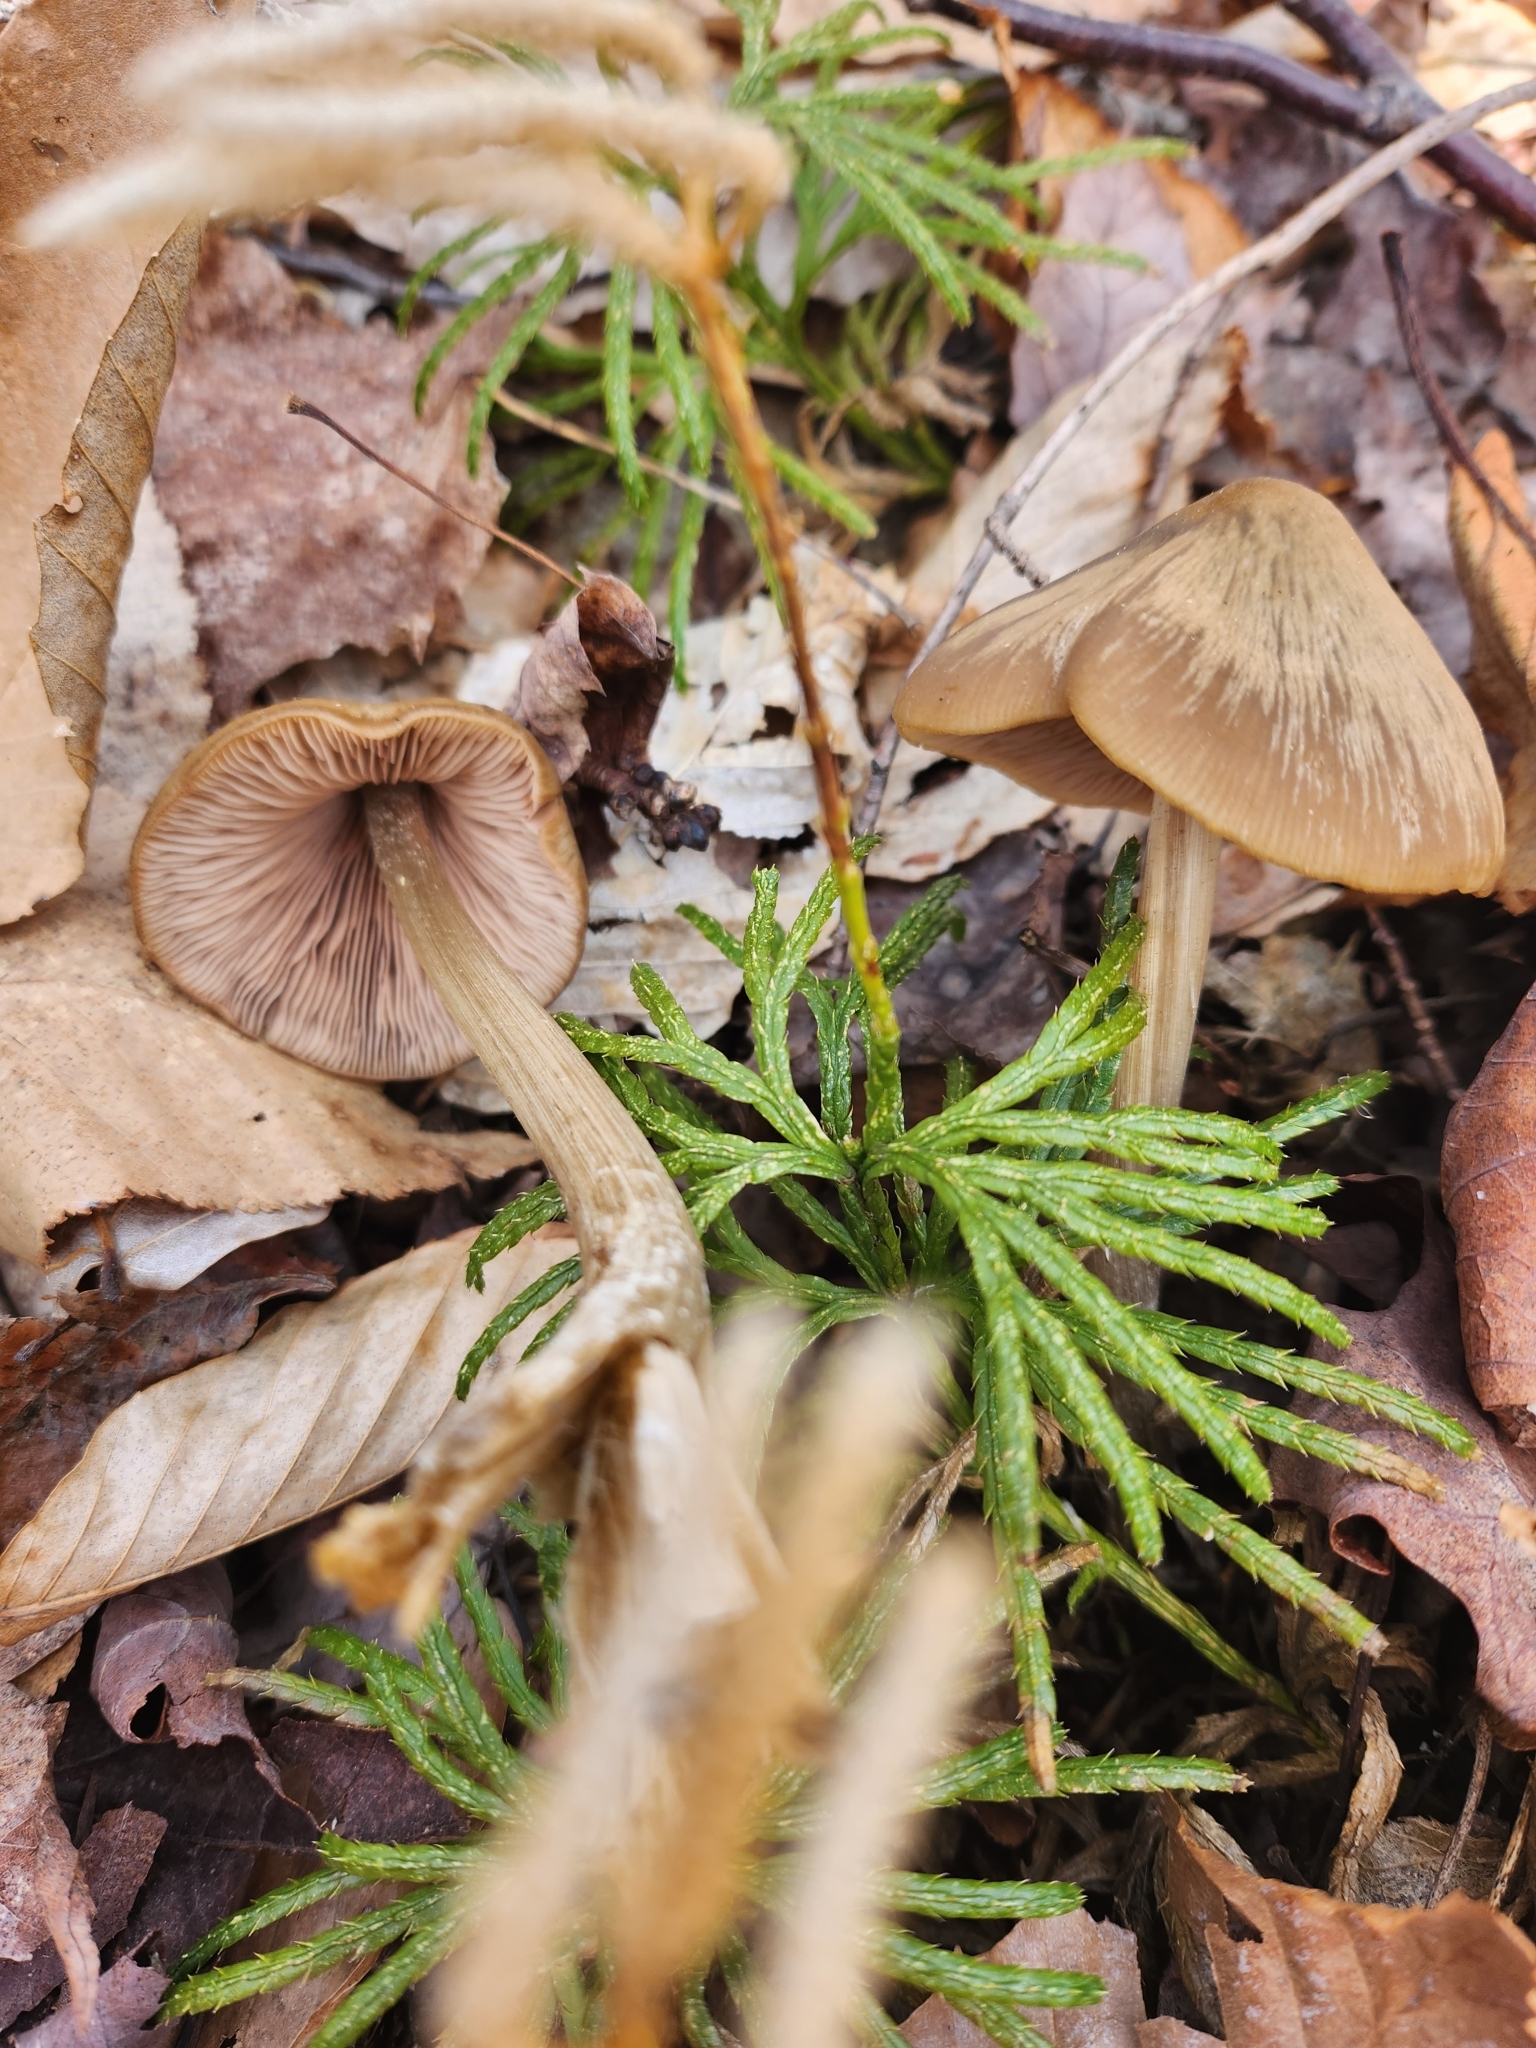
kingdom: Fungi
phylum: Basidiomycota
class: Agaricomycetes
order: Agaricales
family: Entolomataceae
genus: Entoloma
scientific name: Entoloma vernum
